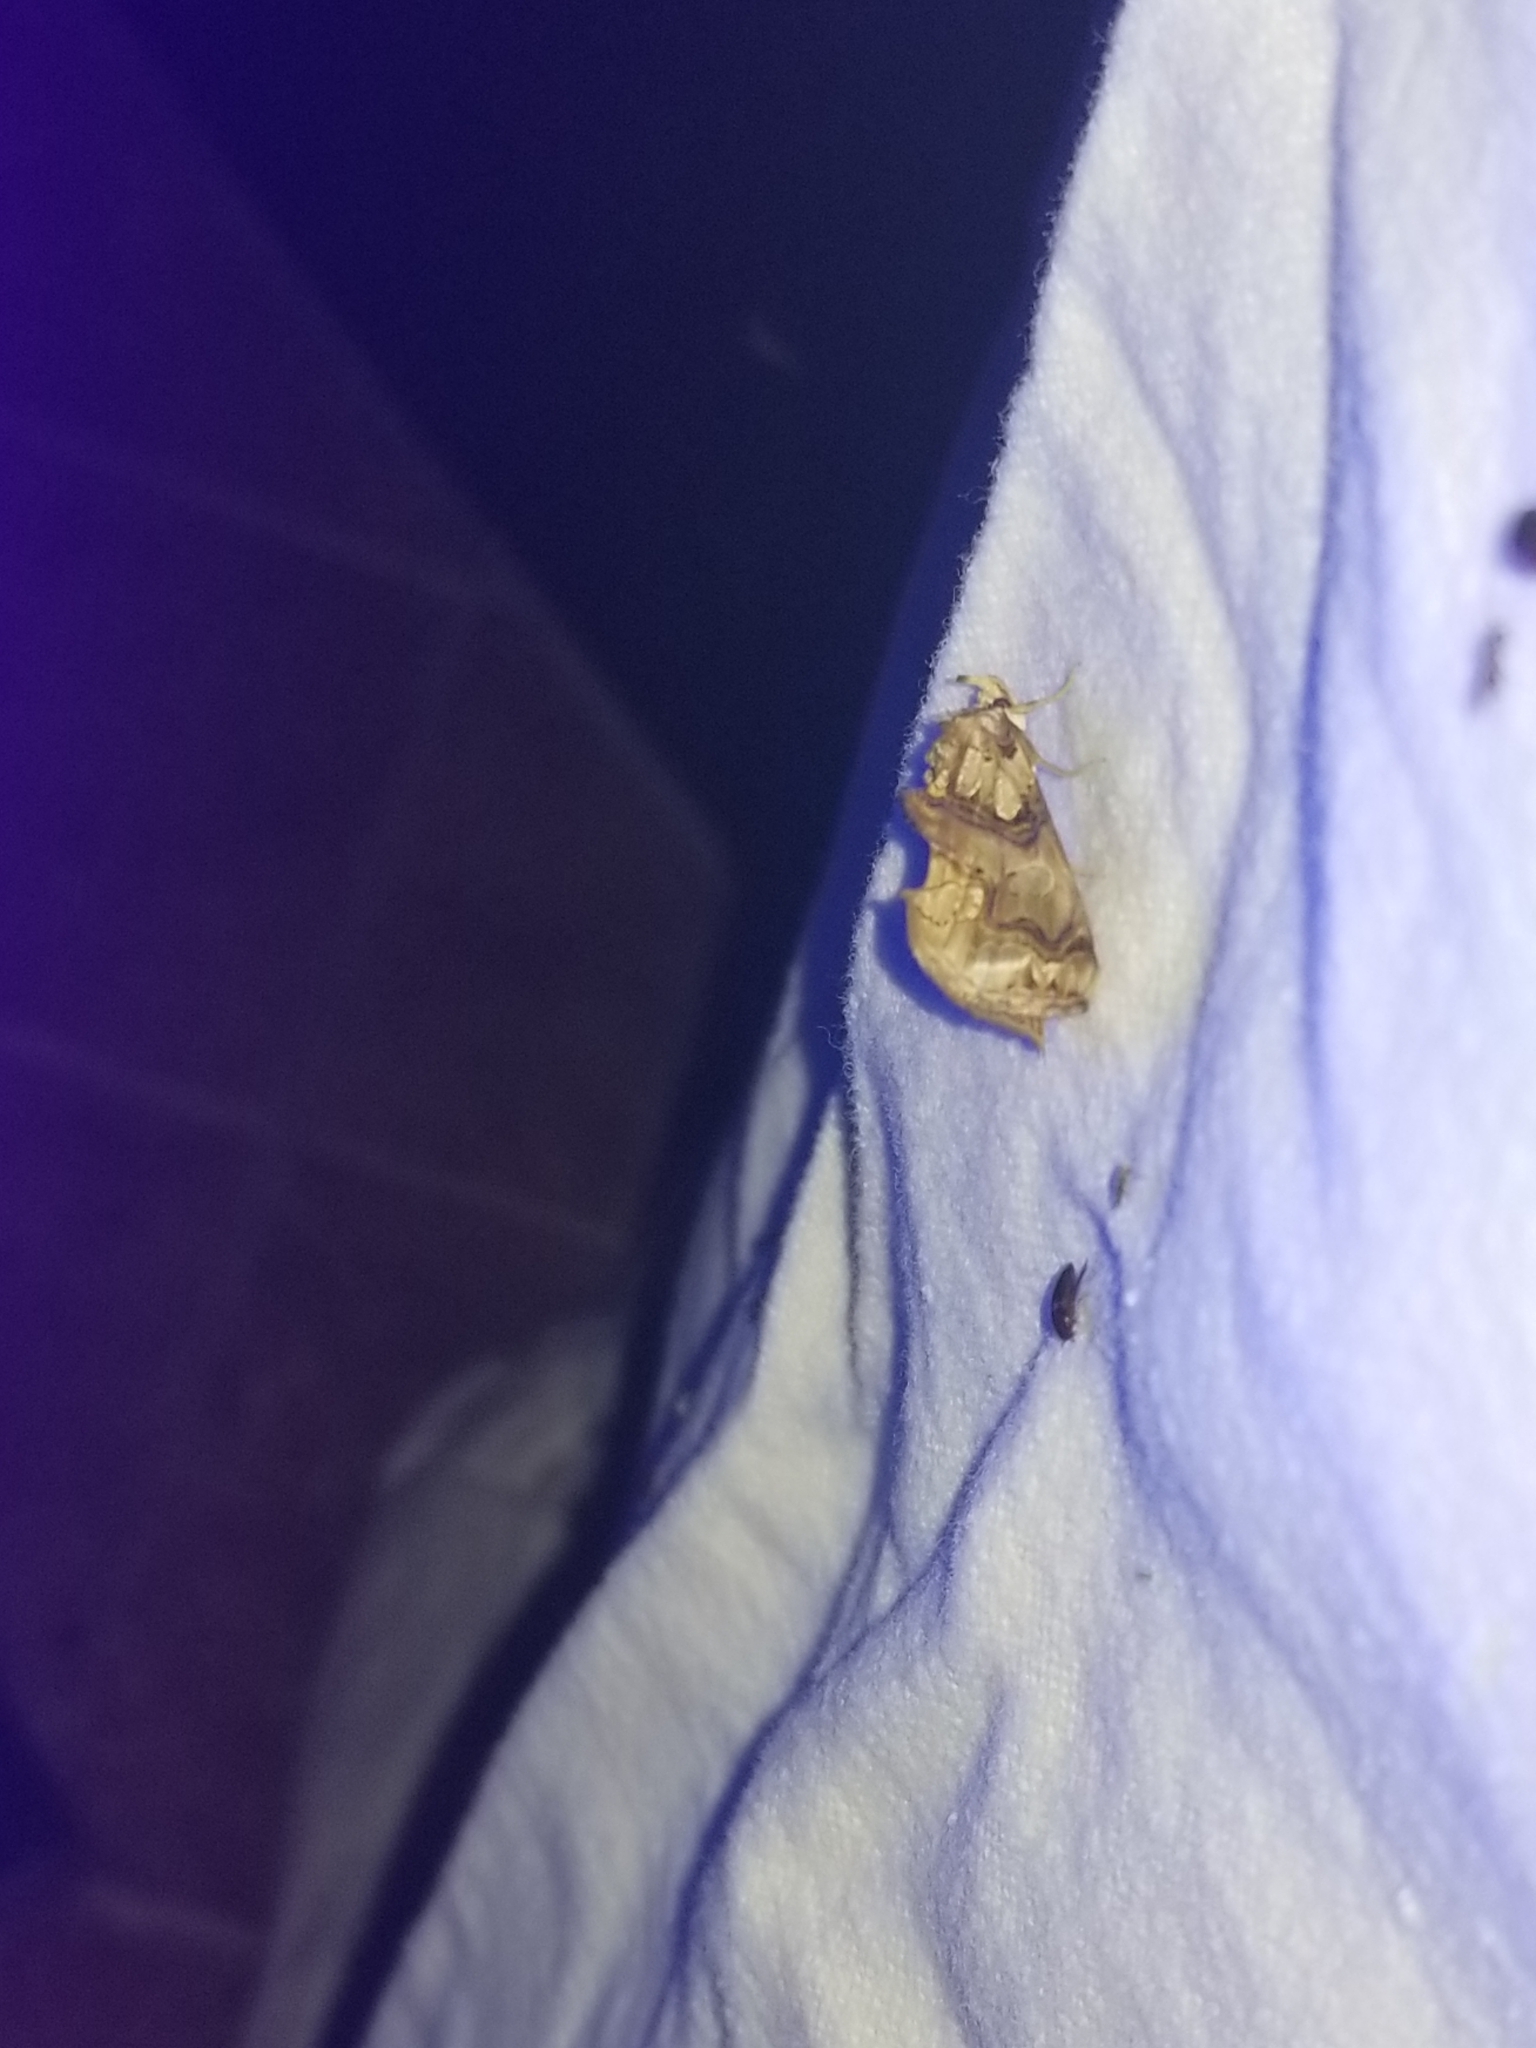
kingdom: Animalia
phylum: Arthropoda
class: Insecta
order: Lepidoptera
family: Erebidae
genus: Plusiodonta
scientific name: Plusiodonta compressipalpis
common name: Moonseed moth
